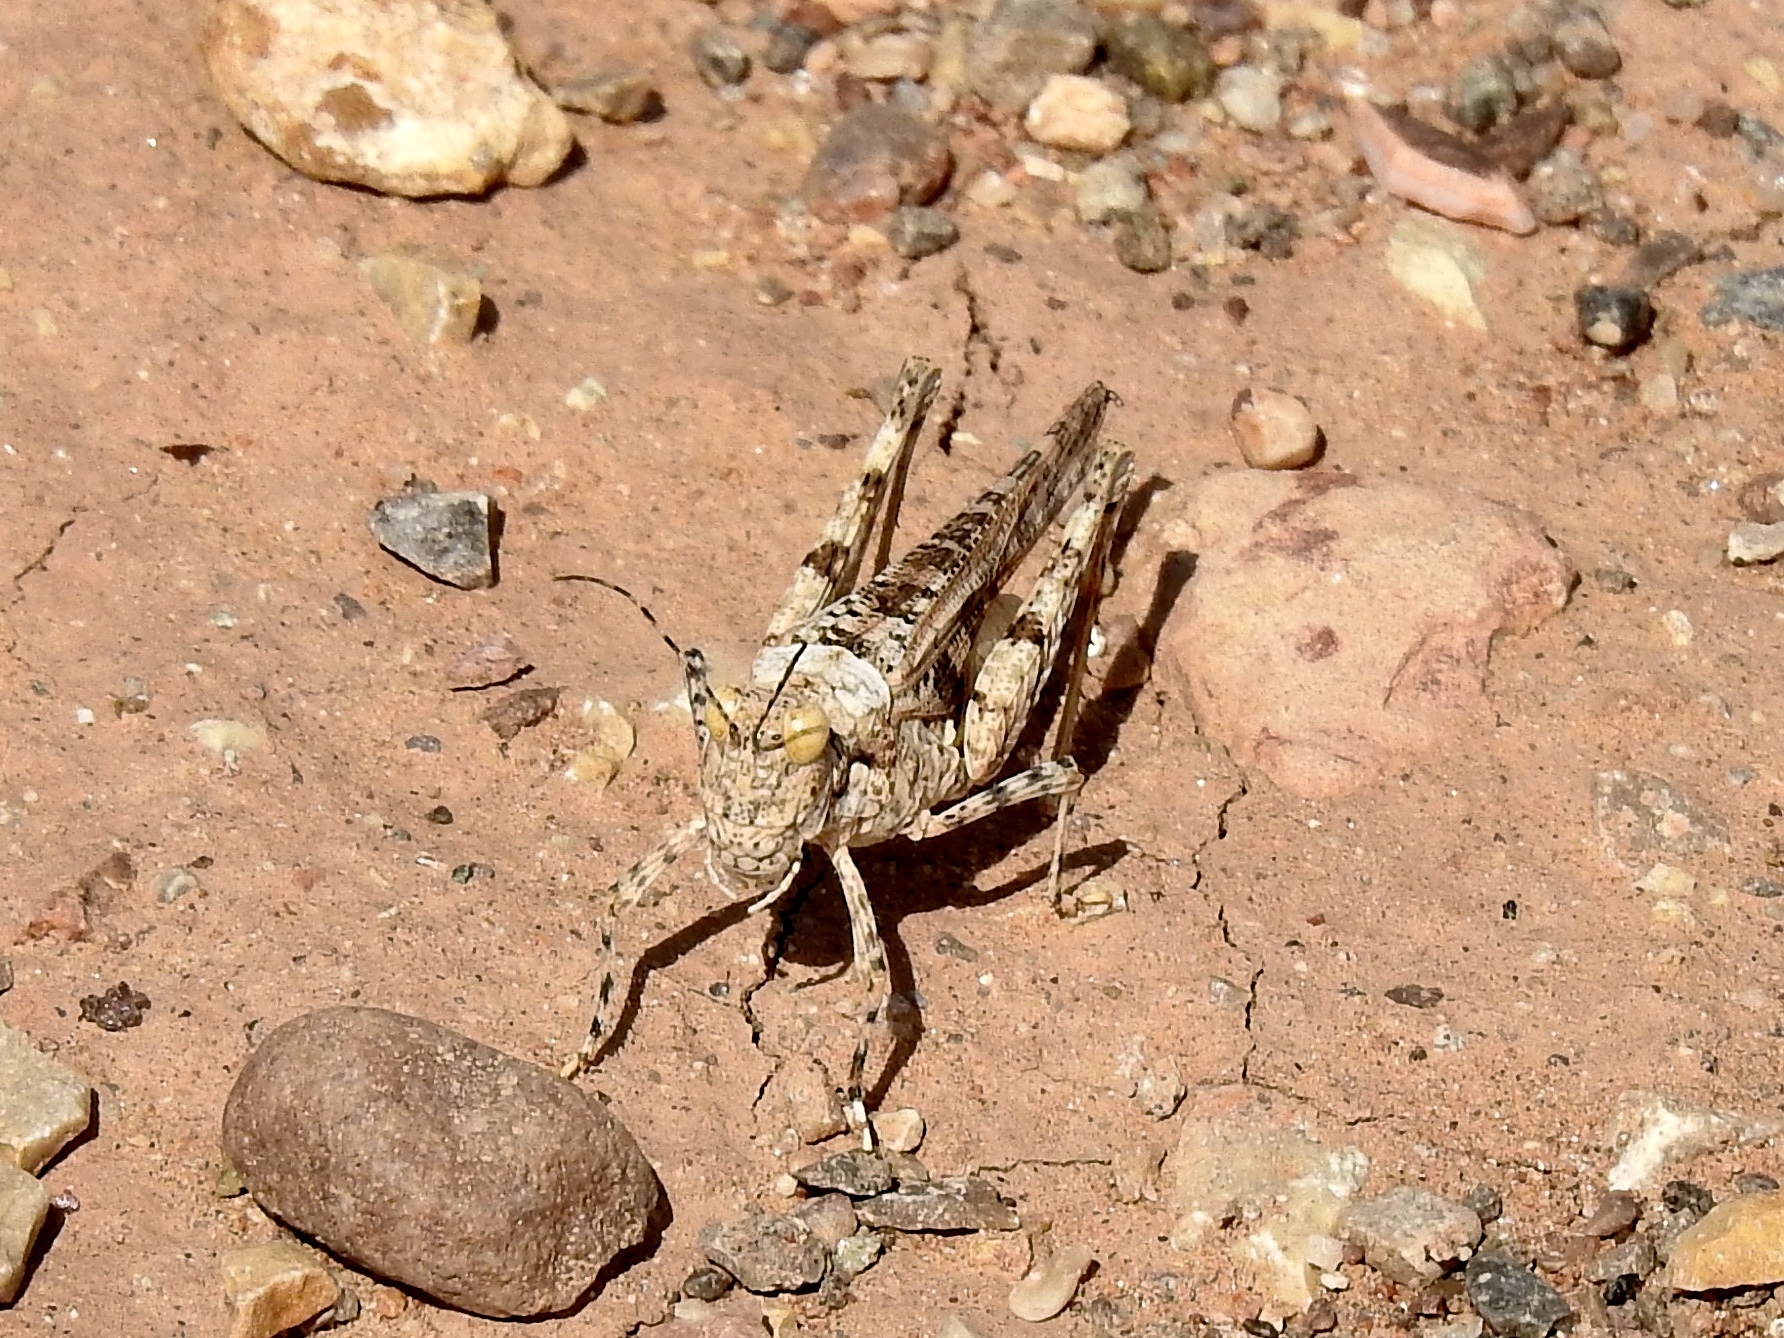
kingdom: Animalia
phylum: Arthropoda
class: Insecta
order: Orthoptera
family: Acrididae
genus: Derotmema
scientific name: Derotmema laticinctum
